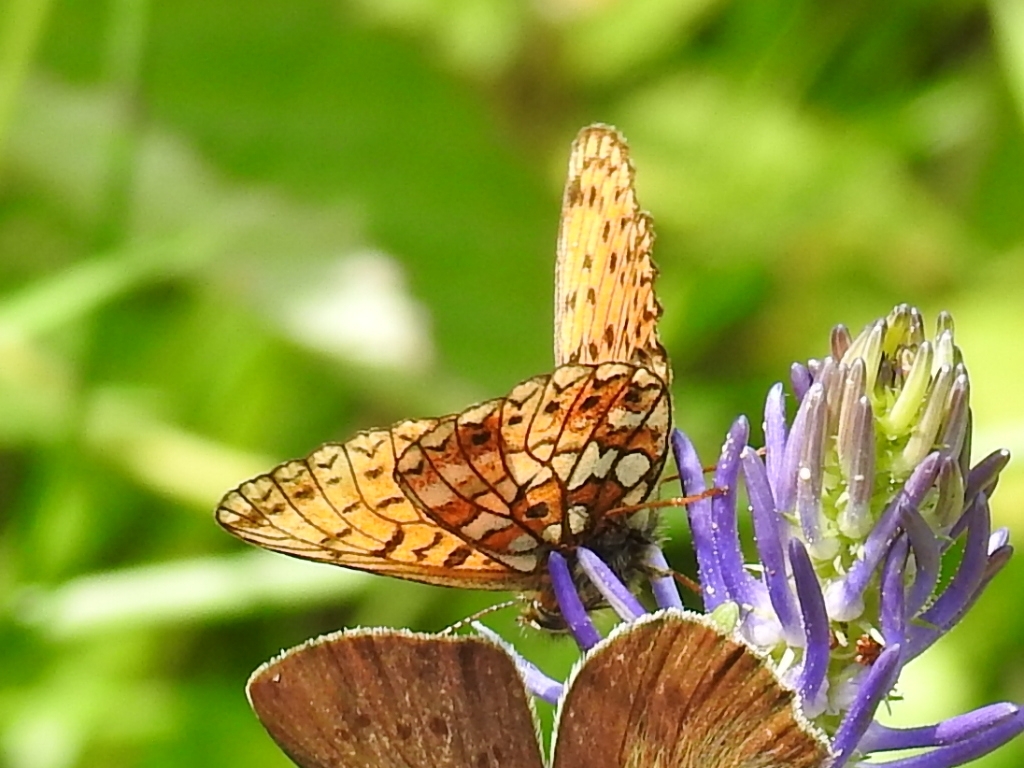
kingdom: Animalia
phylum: Arthropoda
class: Insecta
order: Lepidoptera
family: Nymphalidae
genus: Boloria
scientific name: Boloria selene
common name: Small pearl-bordered fritillary
